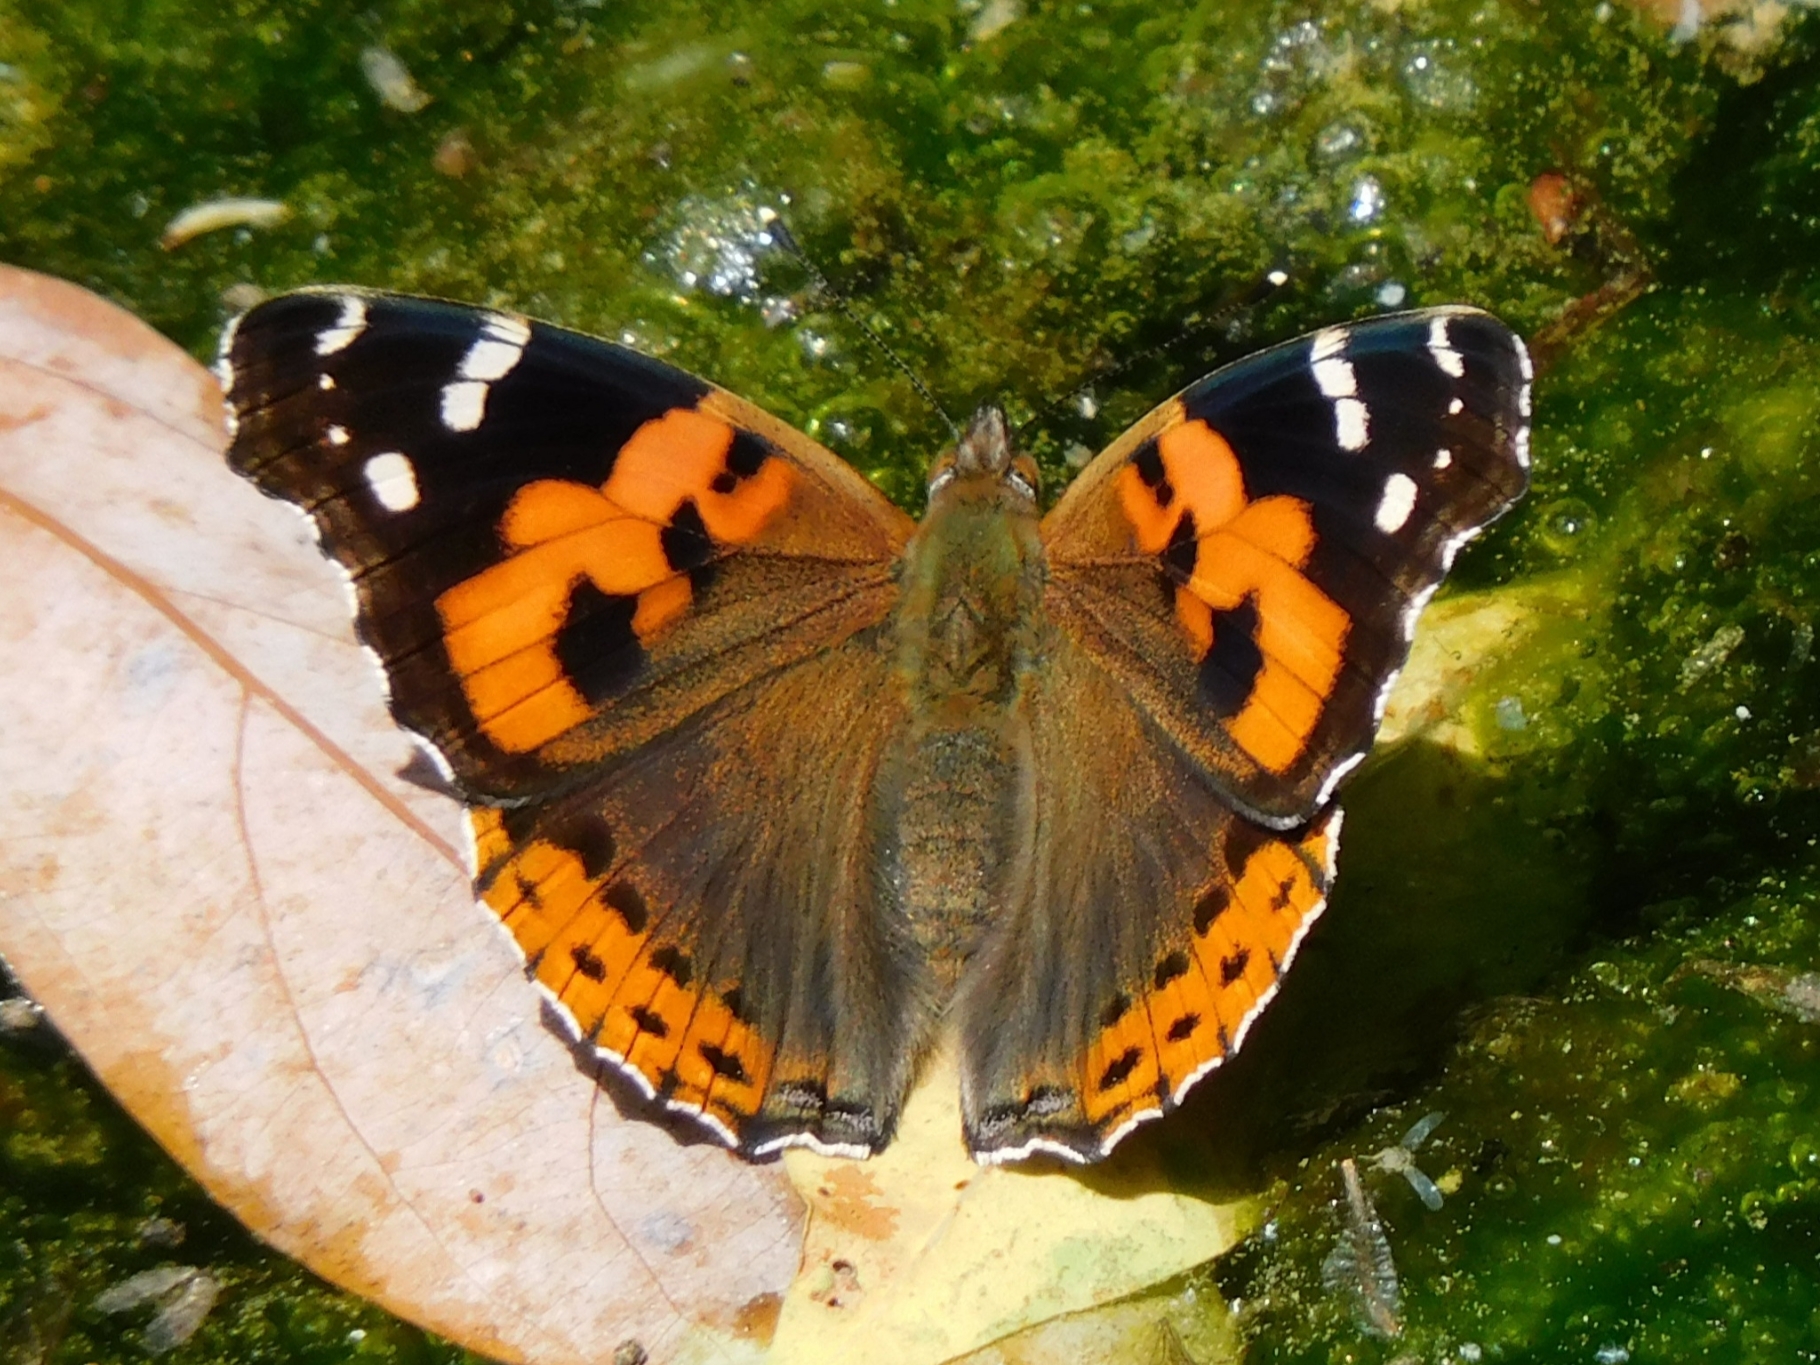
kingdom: Animalia
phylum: Arthropoda
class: Insecta
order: Lepidoptera
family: Nymphalidae
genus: Vanessa
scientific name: Vanessa indica
